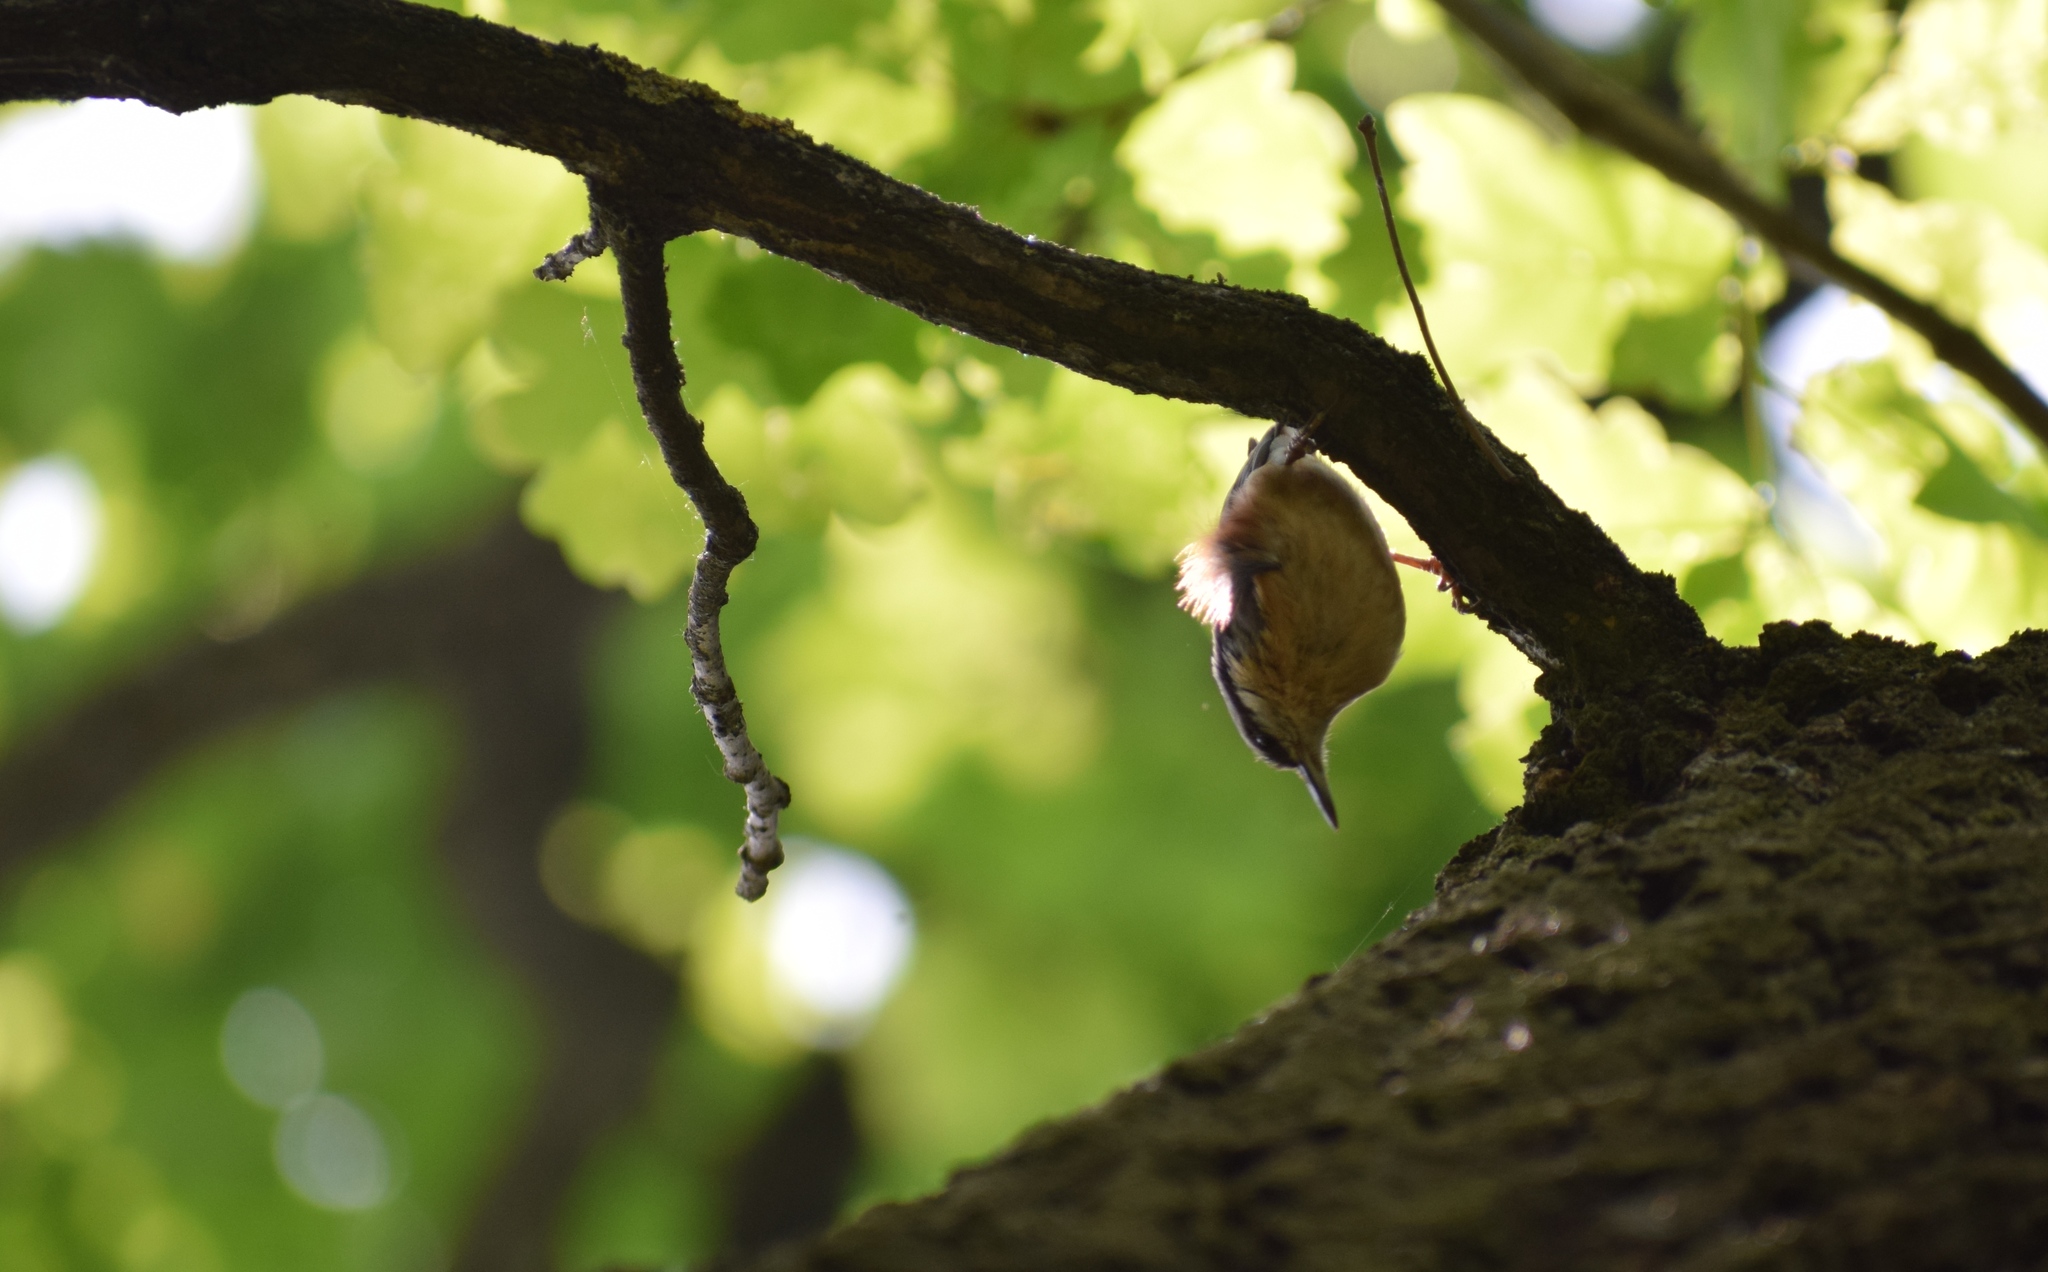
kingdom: Animalia
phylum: Chordata
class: Aves
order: Passeriformes
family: Sittidae
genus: Sitta
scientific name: Sitta europaea
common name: Eurasian nuthatch
